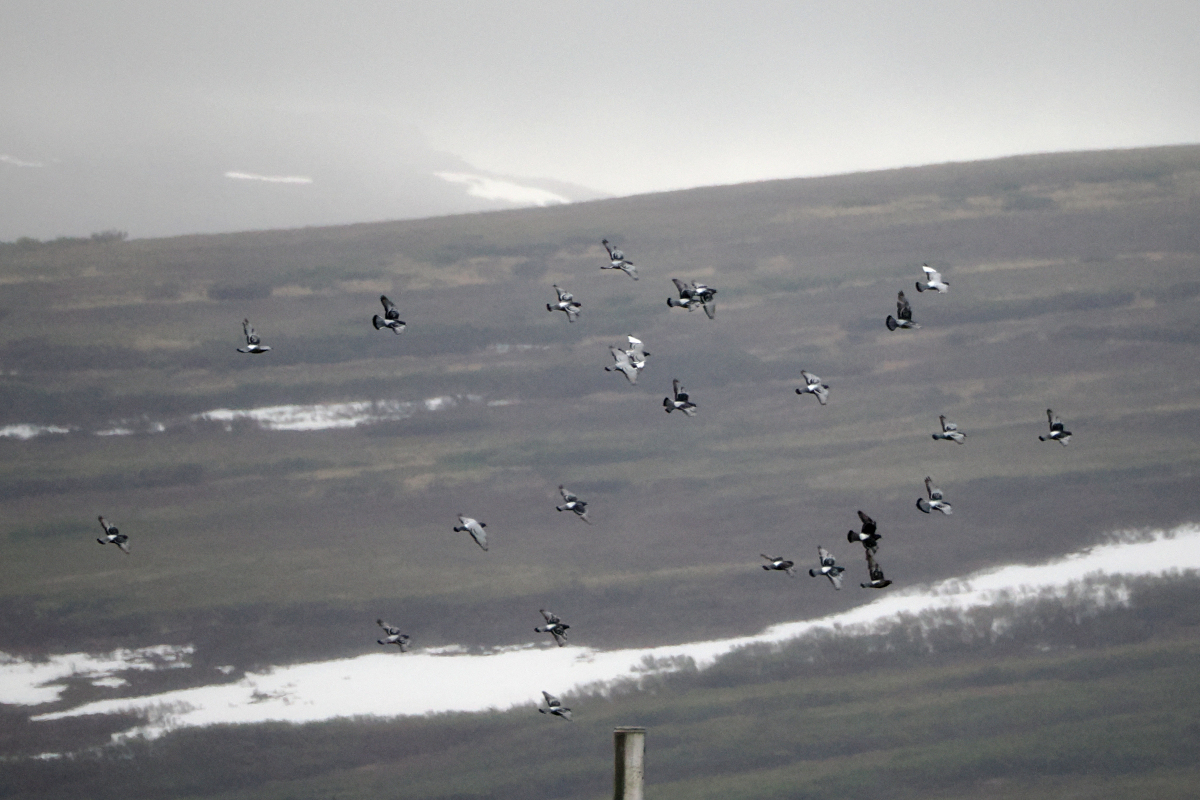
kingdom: Animalia
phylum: Chordata
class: Aves
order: Columbiformes
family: Columbidae
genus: Columba
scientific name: Columba livia
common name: Rock pigeon
